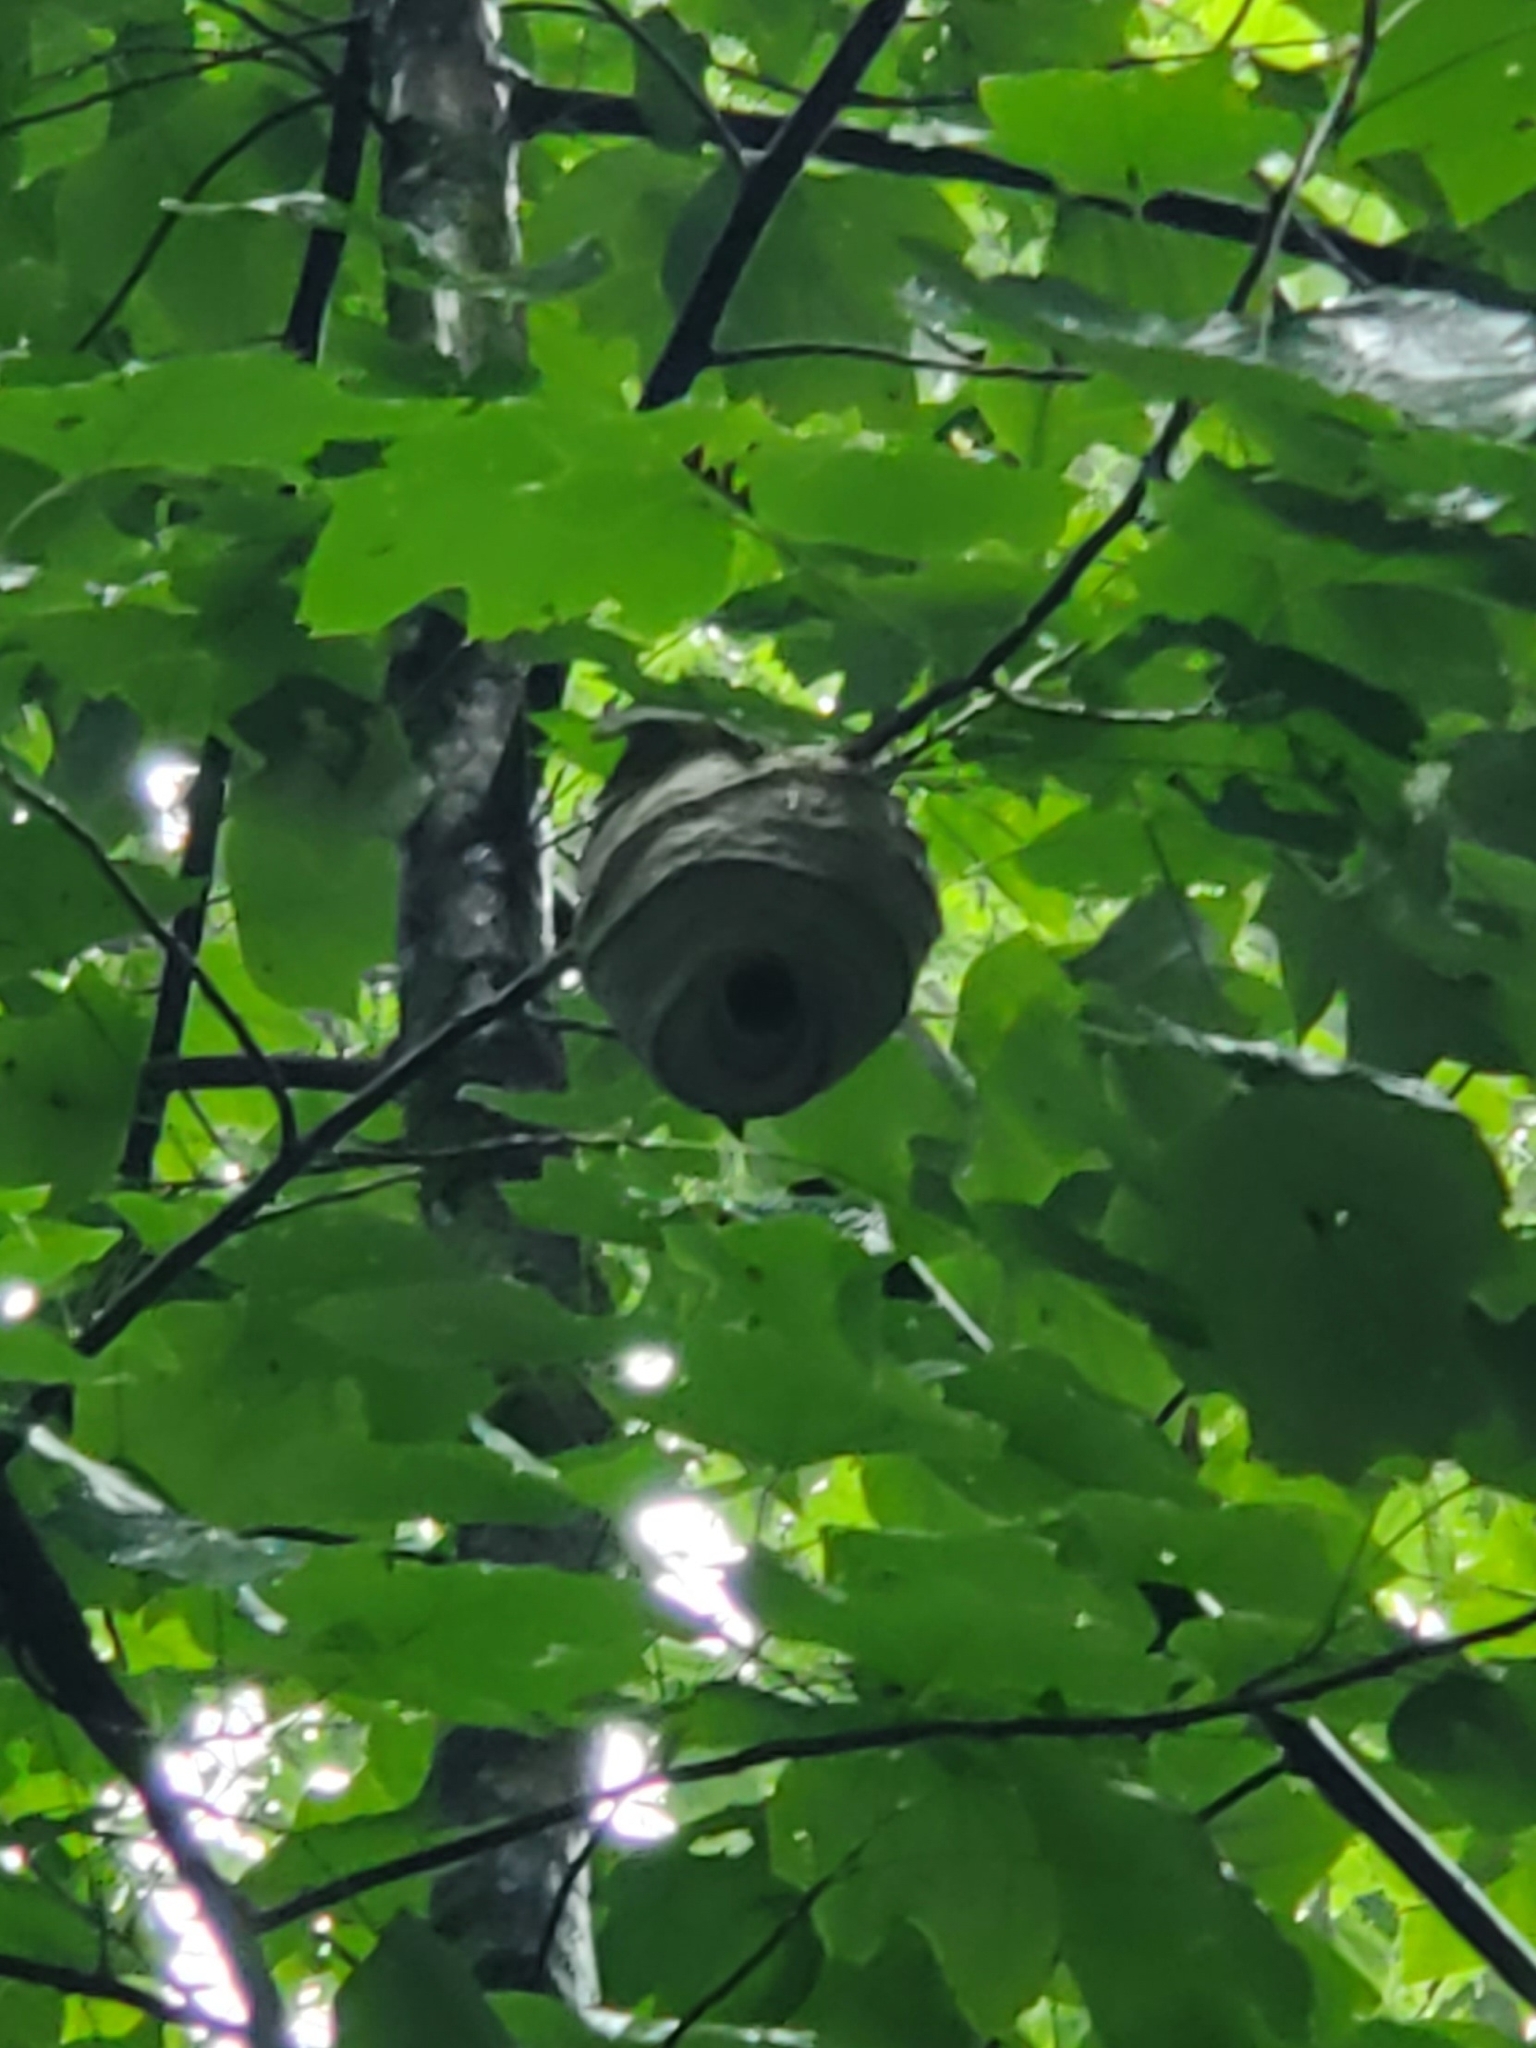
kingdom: Animalia
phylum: Arthropoda
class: Insecta
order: Hymenoptera
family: Vespidae
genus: Dolichovespula
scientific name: Dolichovespula maculata
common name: Bald-faced hornet
